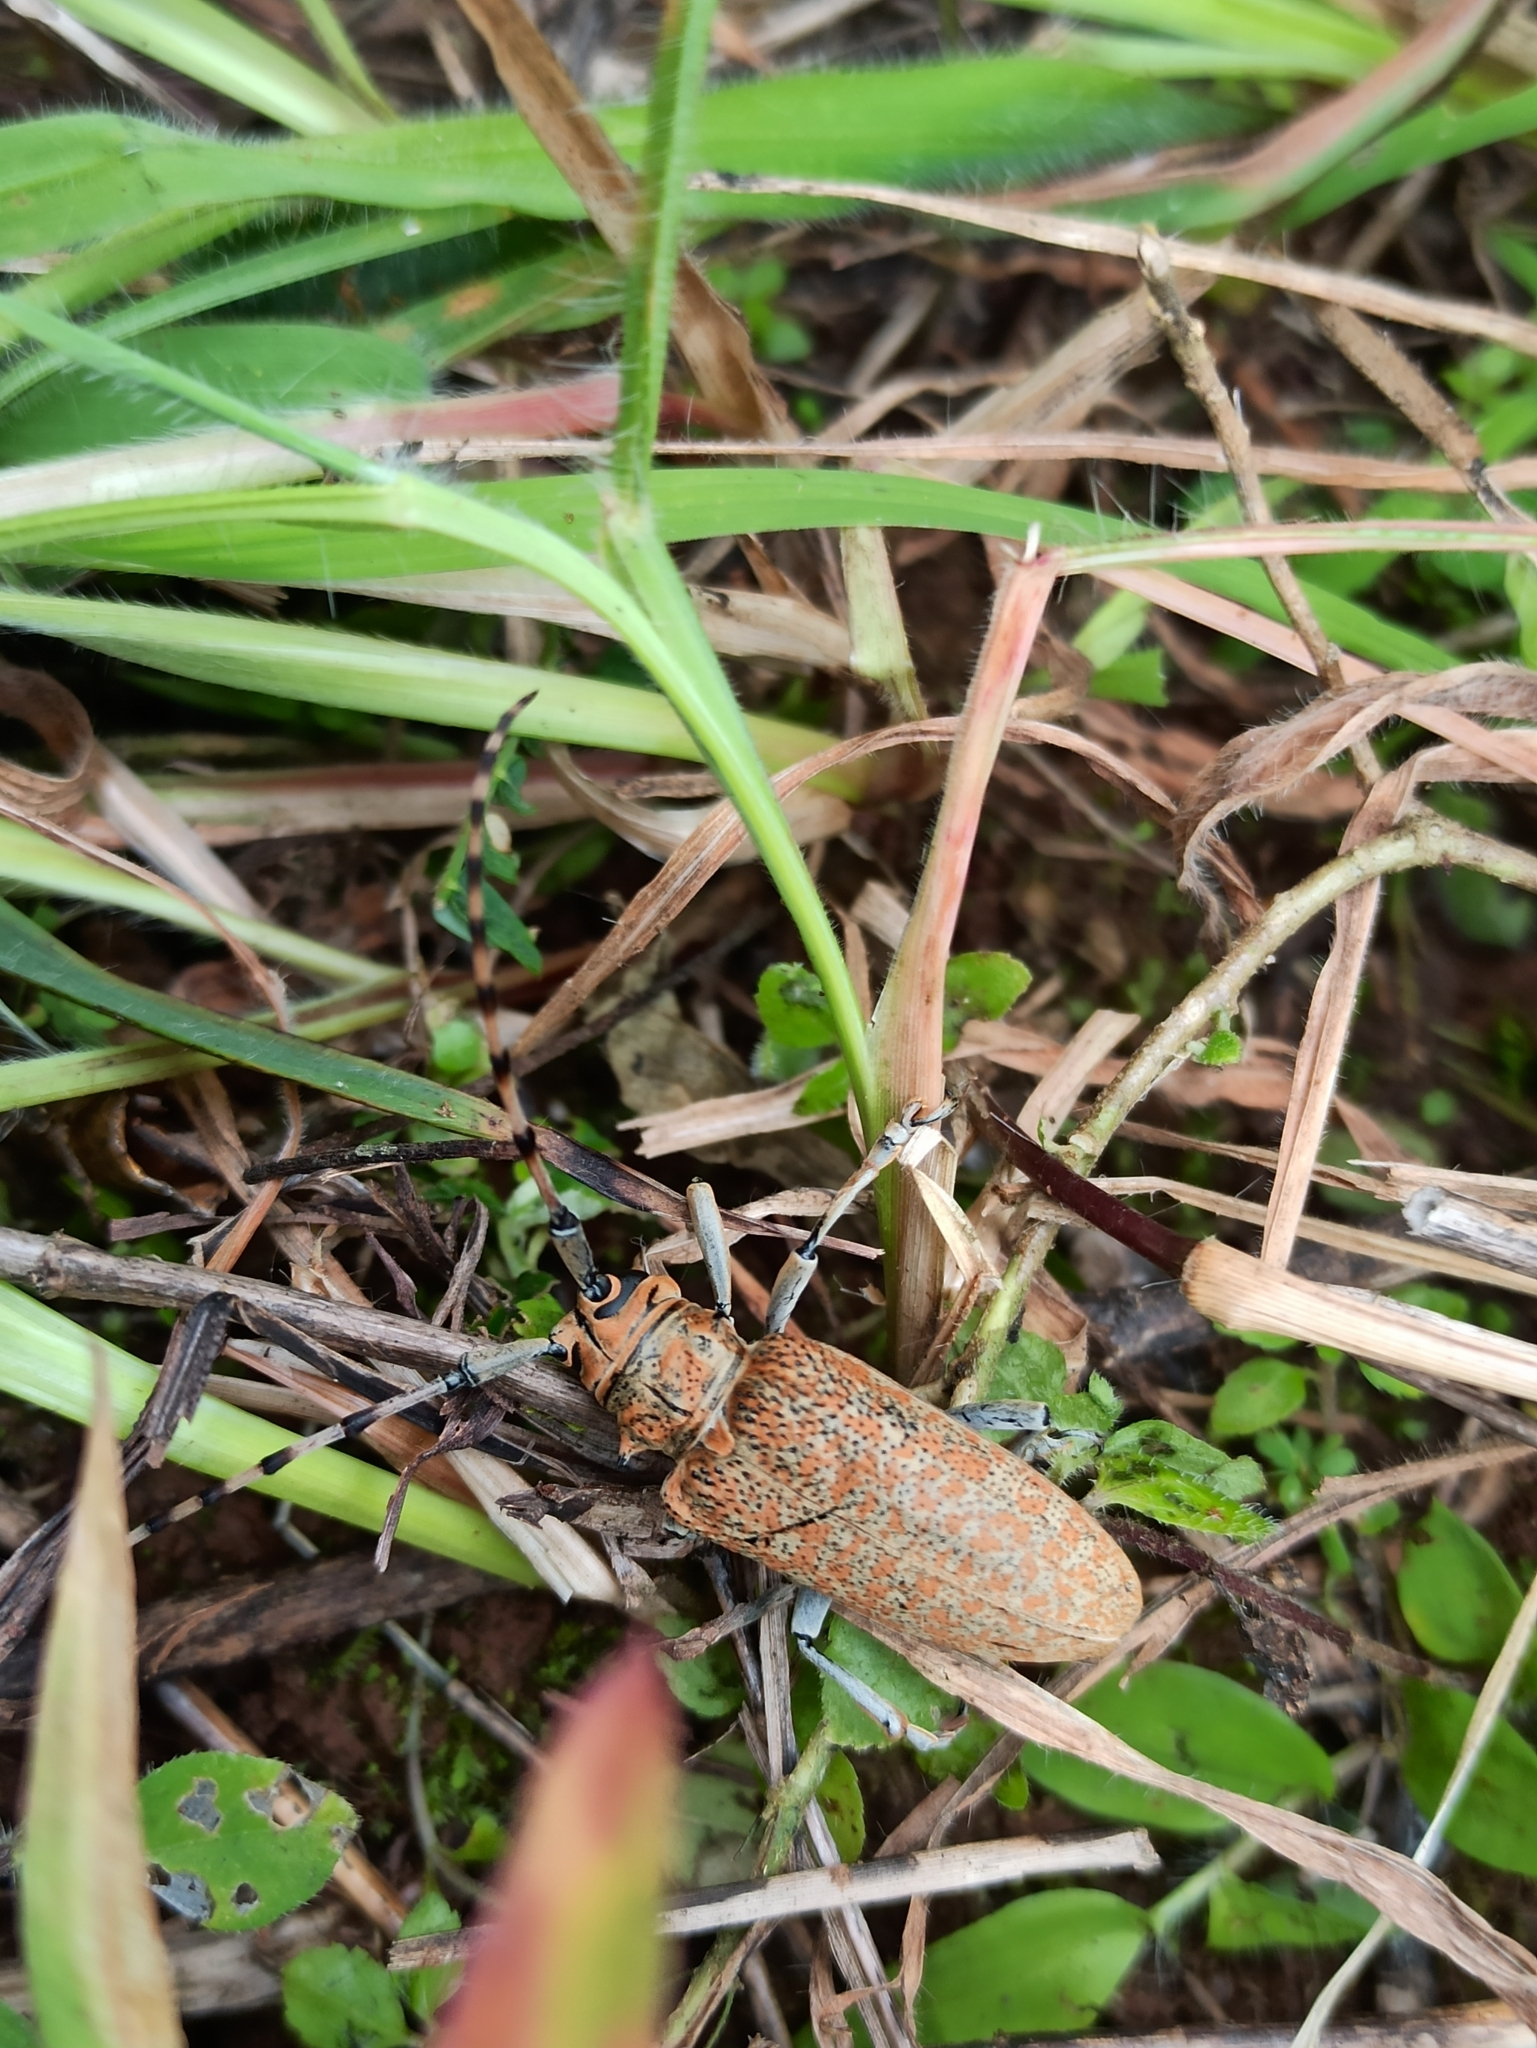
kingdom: Animalia
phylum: Arthropoda
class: Insecta
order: Coleoptera
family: Cerambycidae
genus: Cerosterna
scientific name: Cerosterna scabrator
